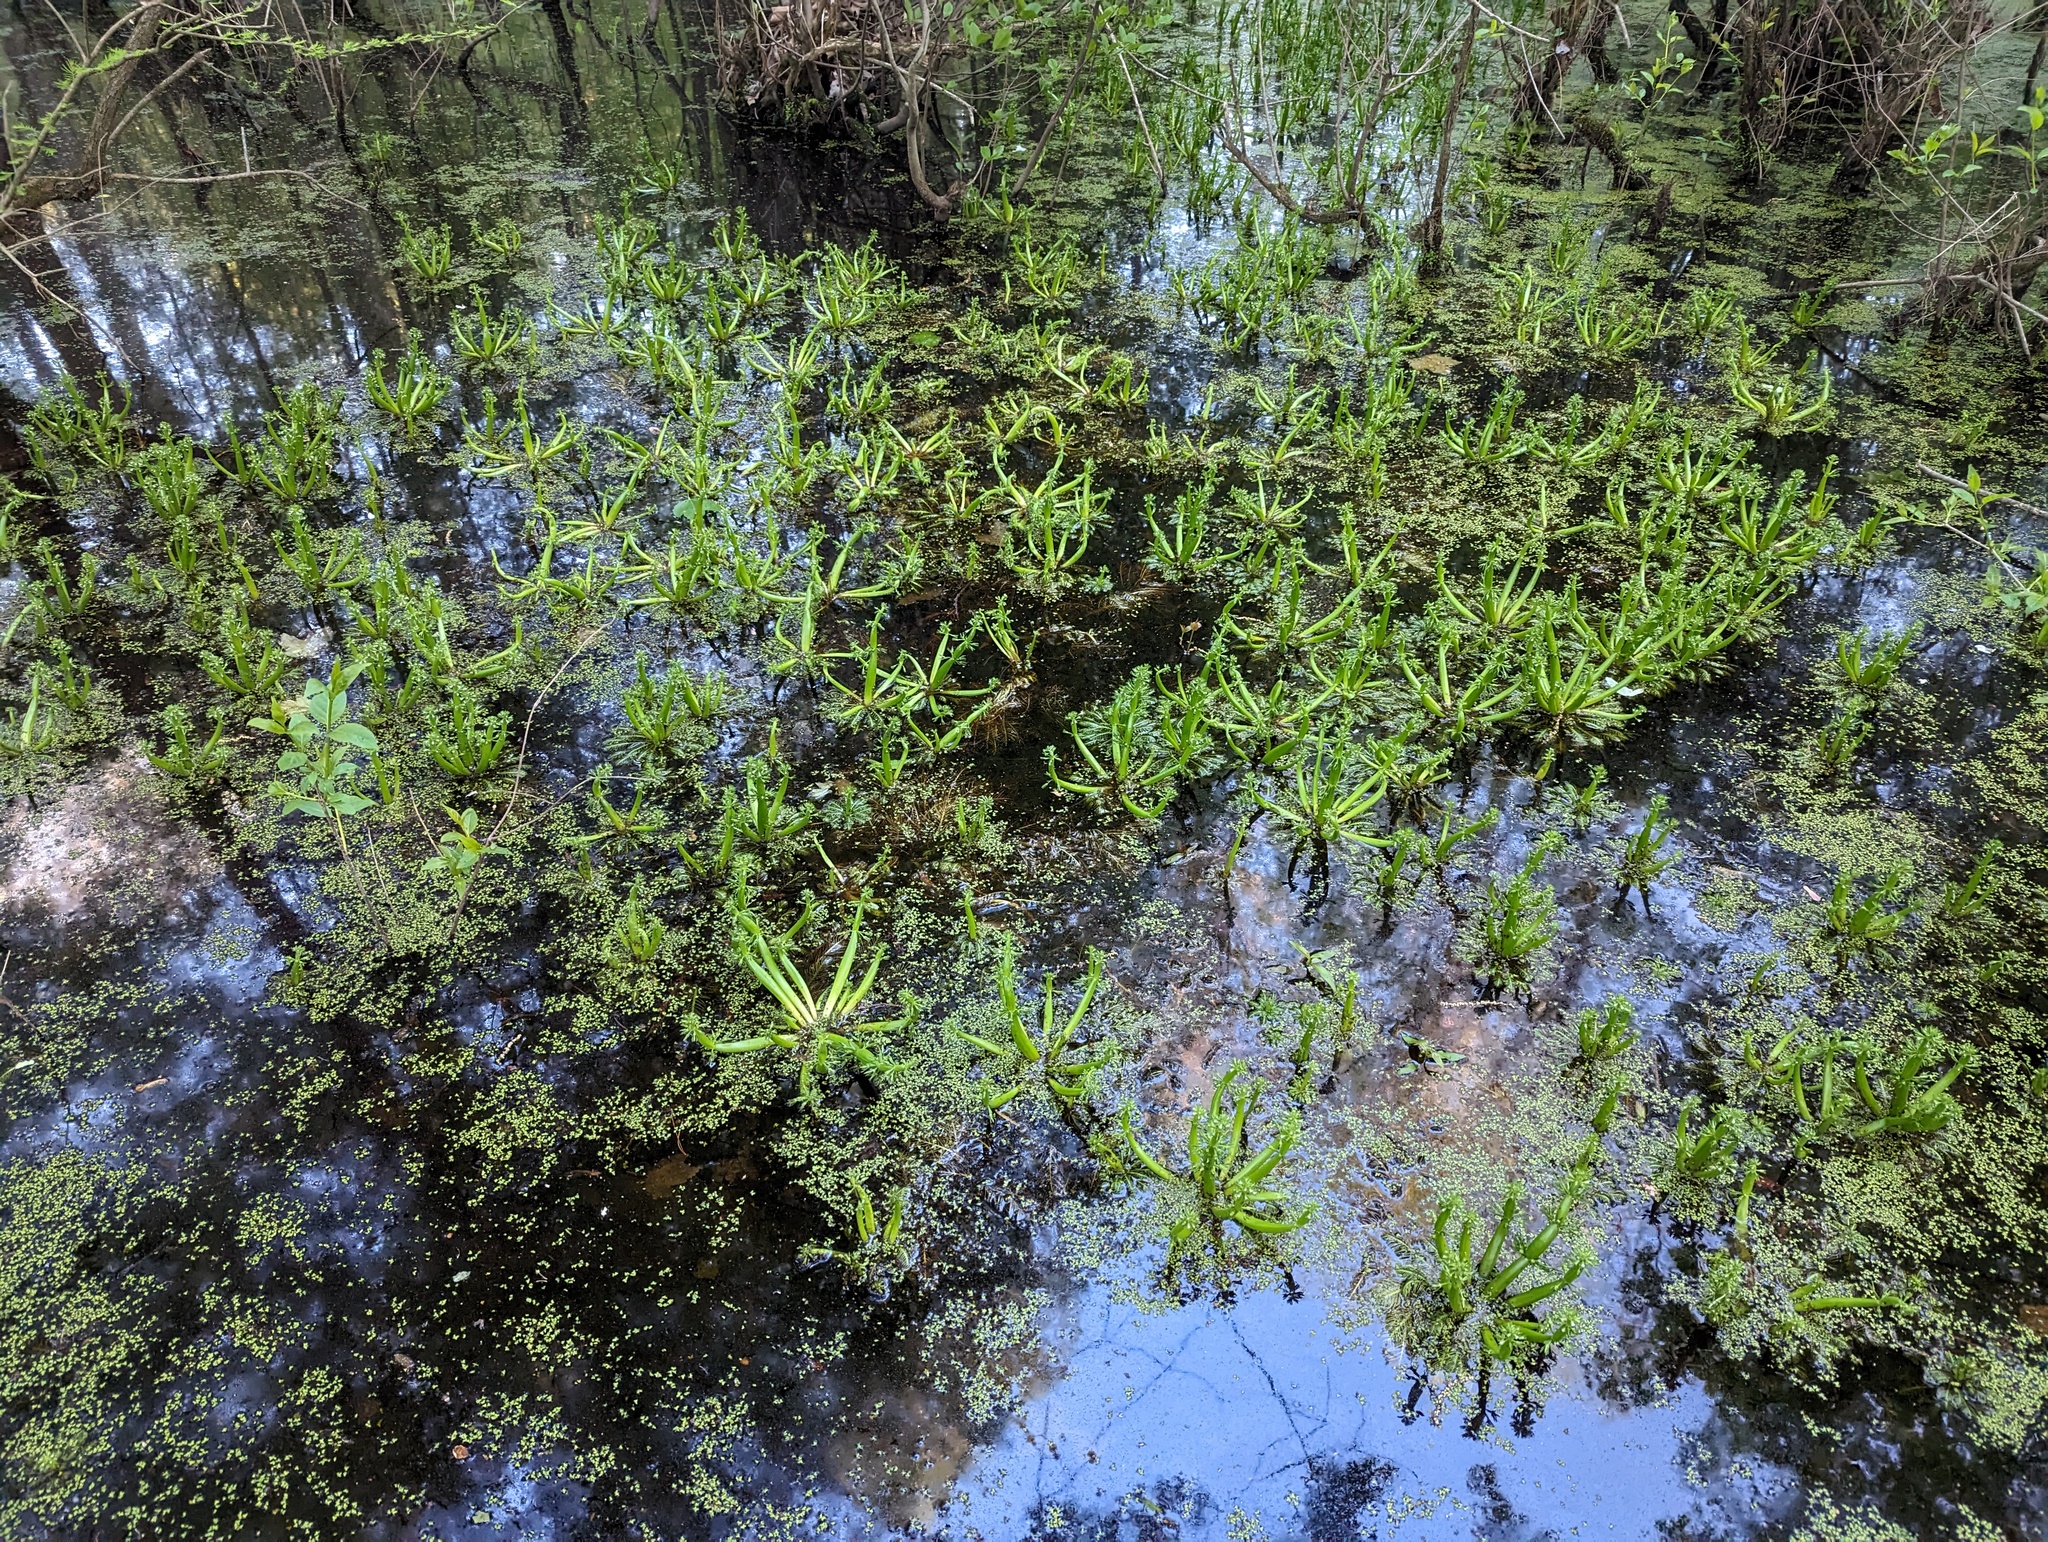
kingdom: Plantae
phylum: Tracheophyta
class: Magnoliopsida
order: Ericales
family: Primulaceae
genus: Hottonia
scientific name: Hottonia inflata
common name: American featherfoil
